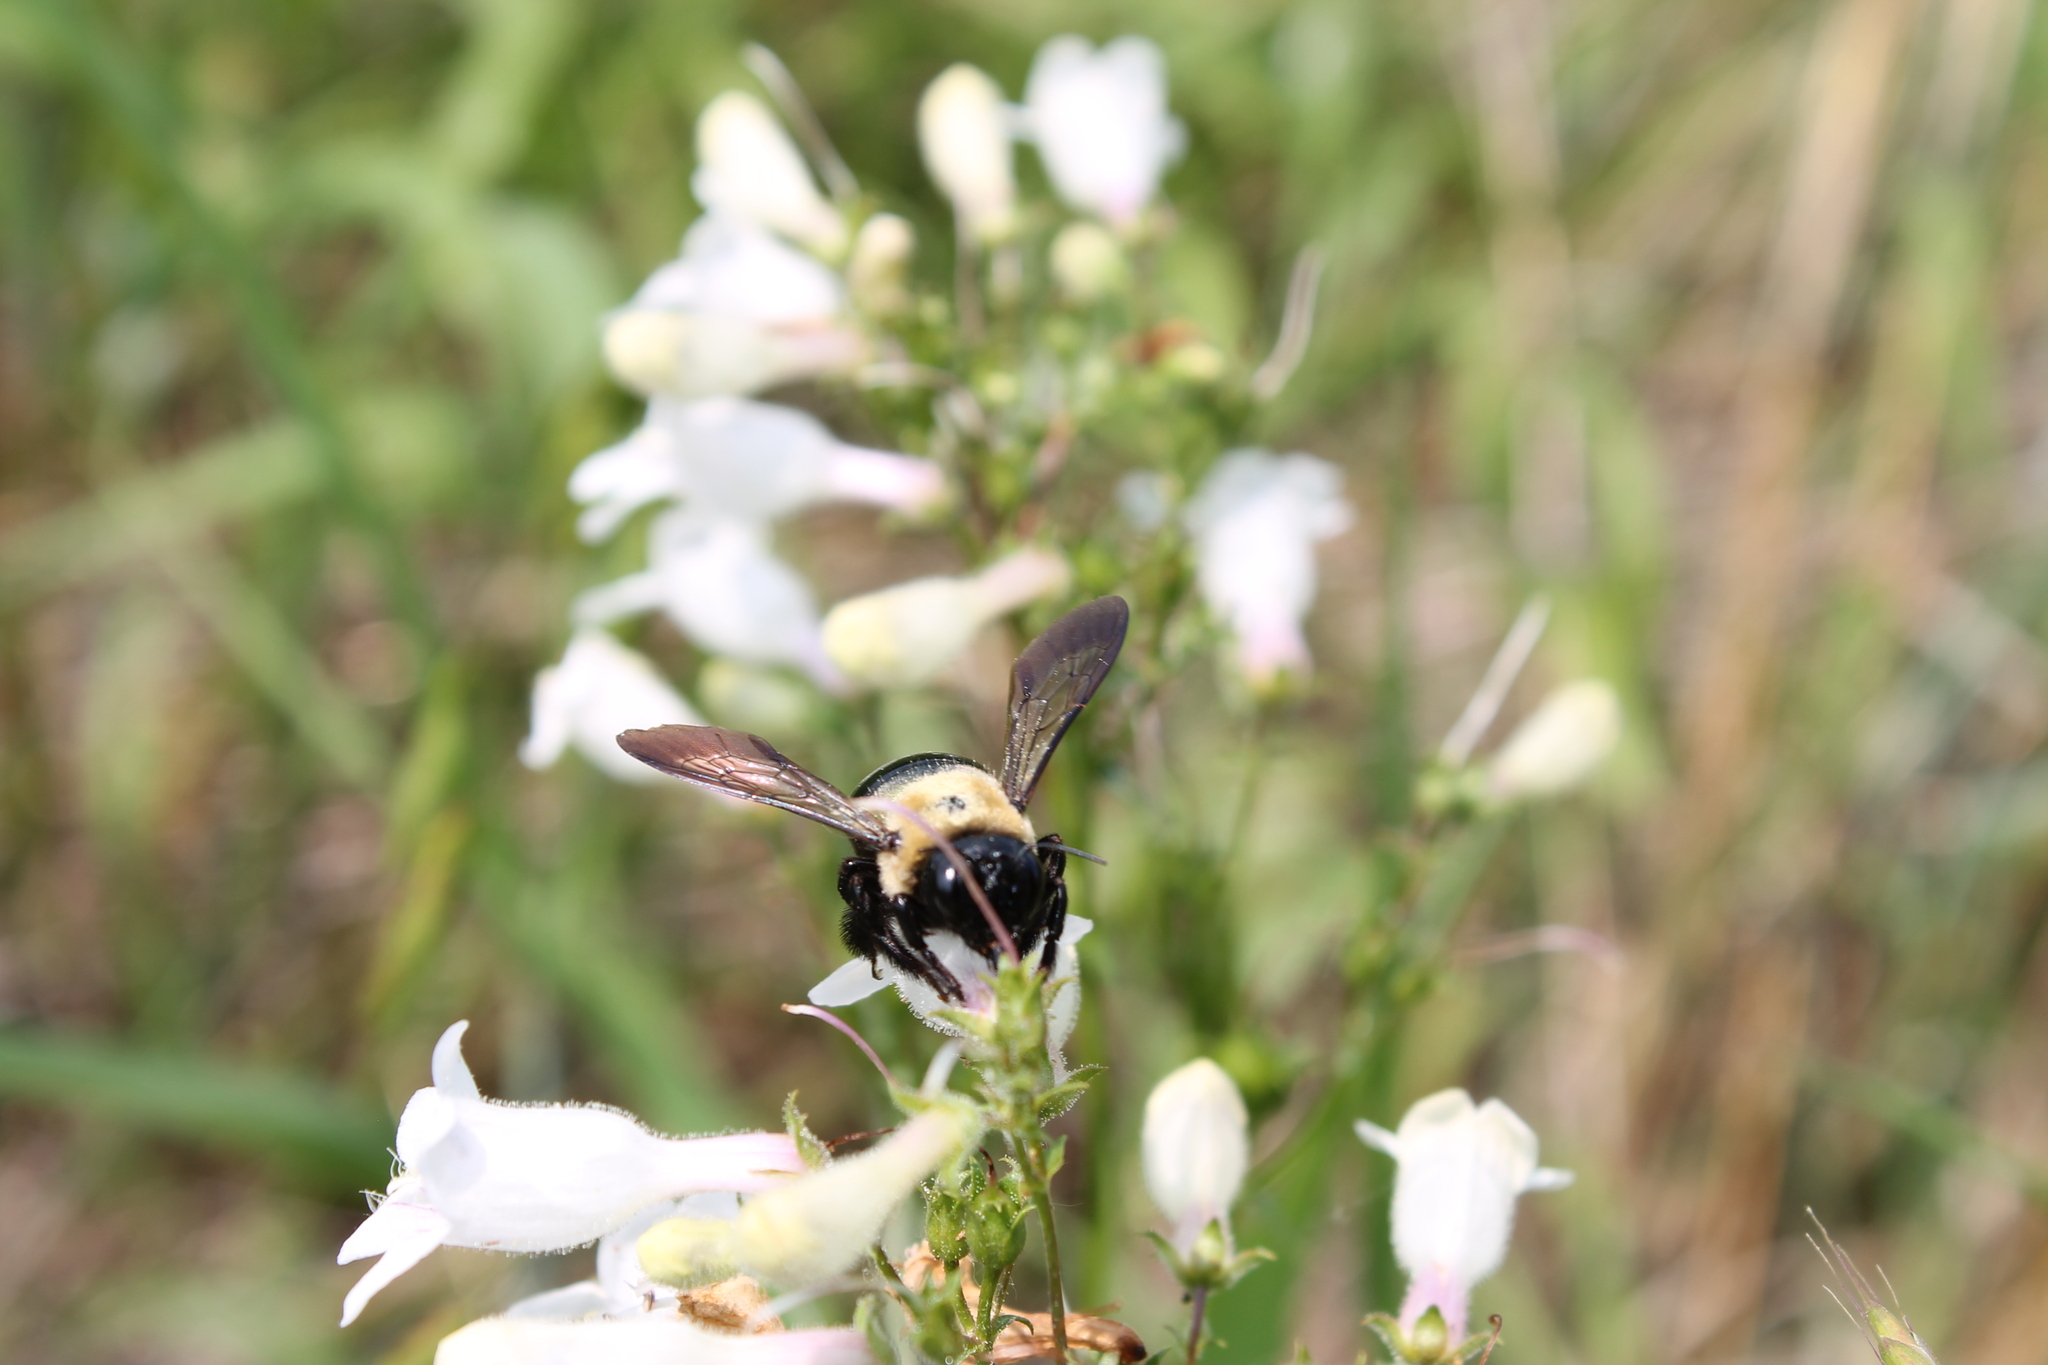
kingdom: Animalia
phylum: Arthropoda
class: Insecta
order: Hymenoptera
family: Apidae
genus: Xylocopa
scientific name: Xylocopa virginica
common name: Carpenter bee
